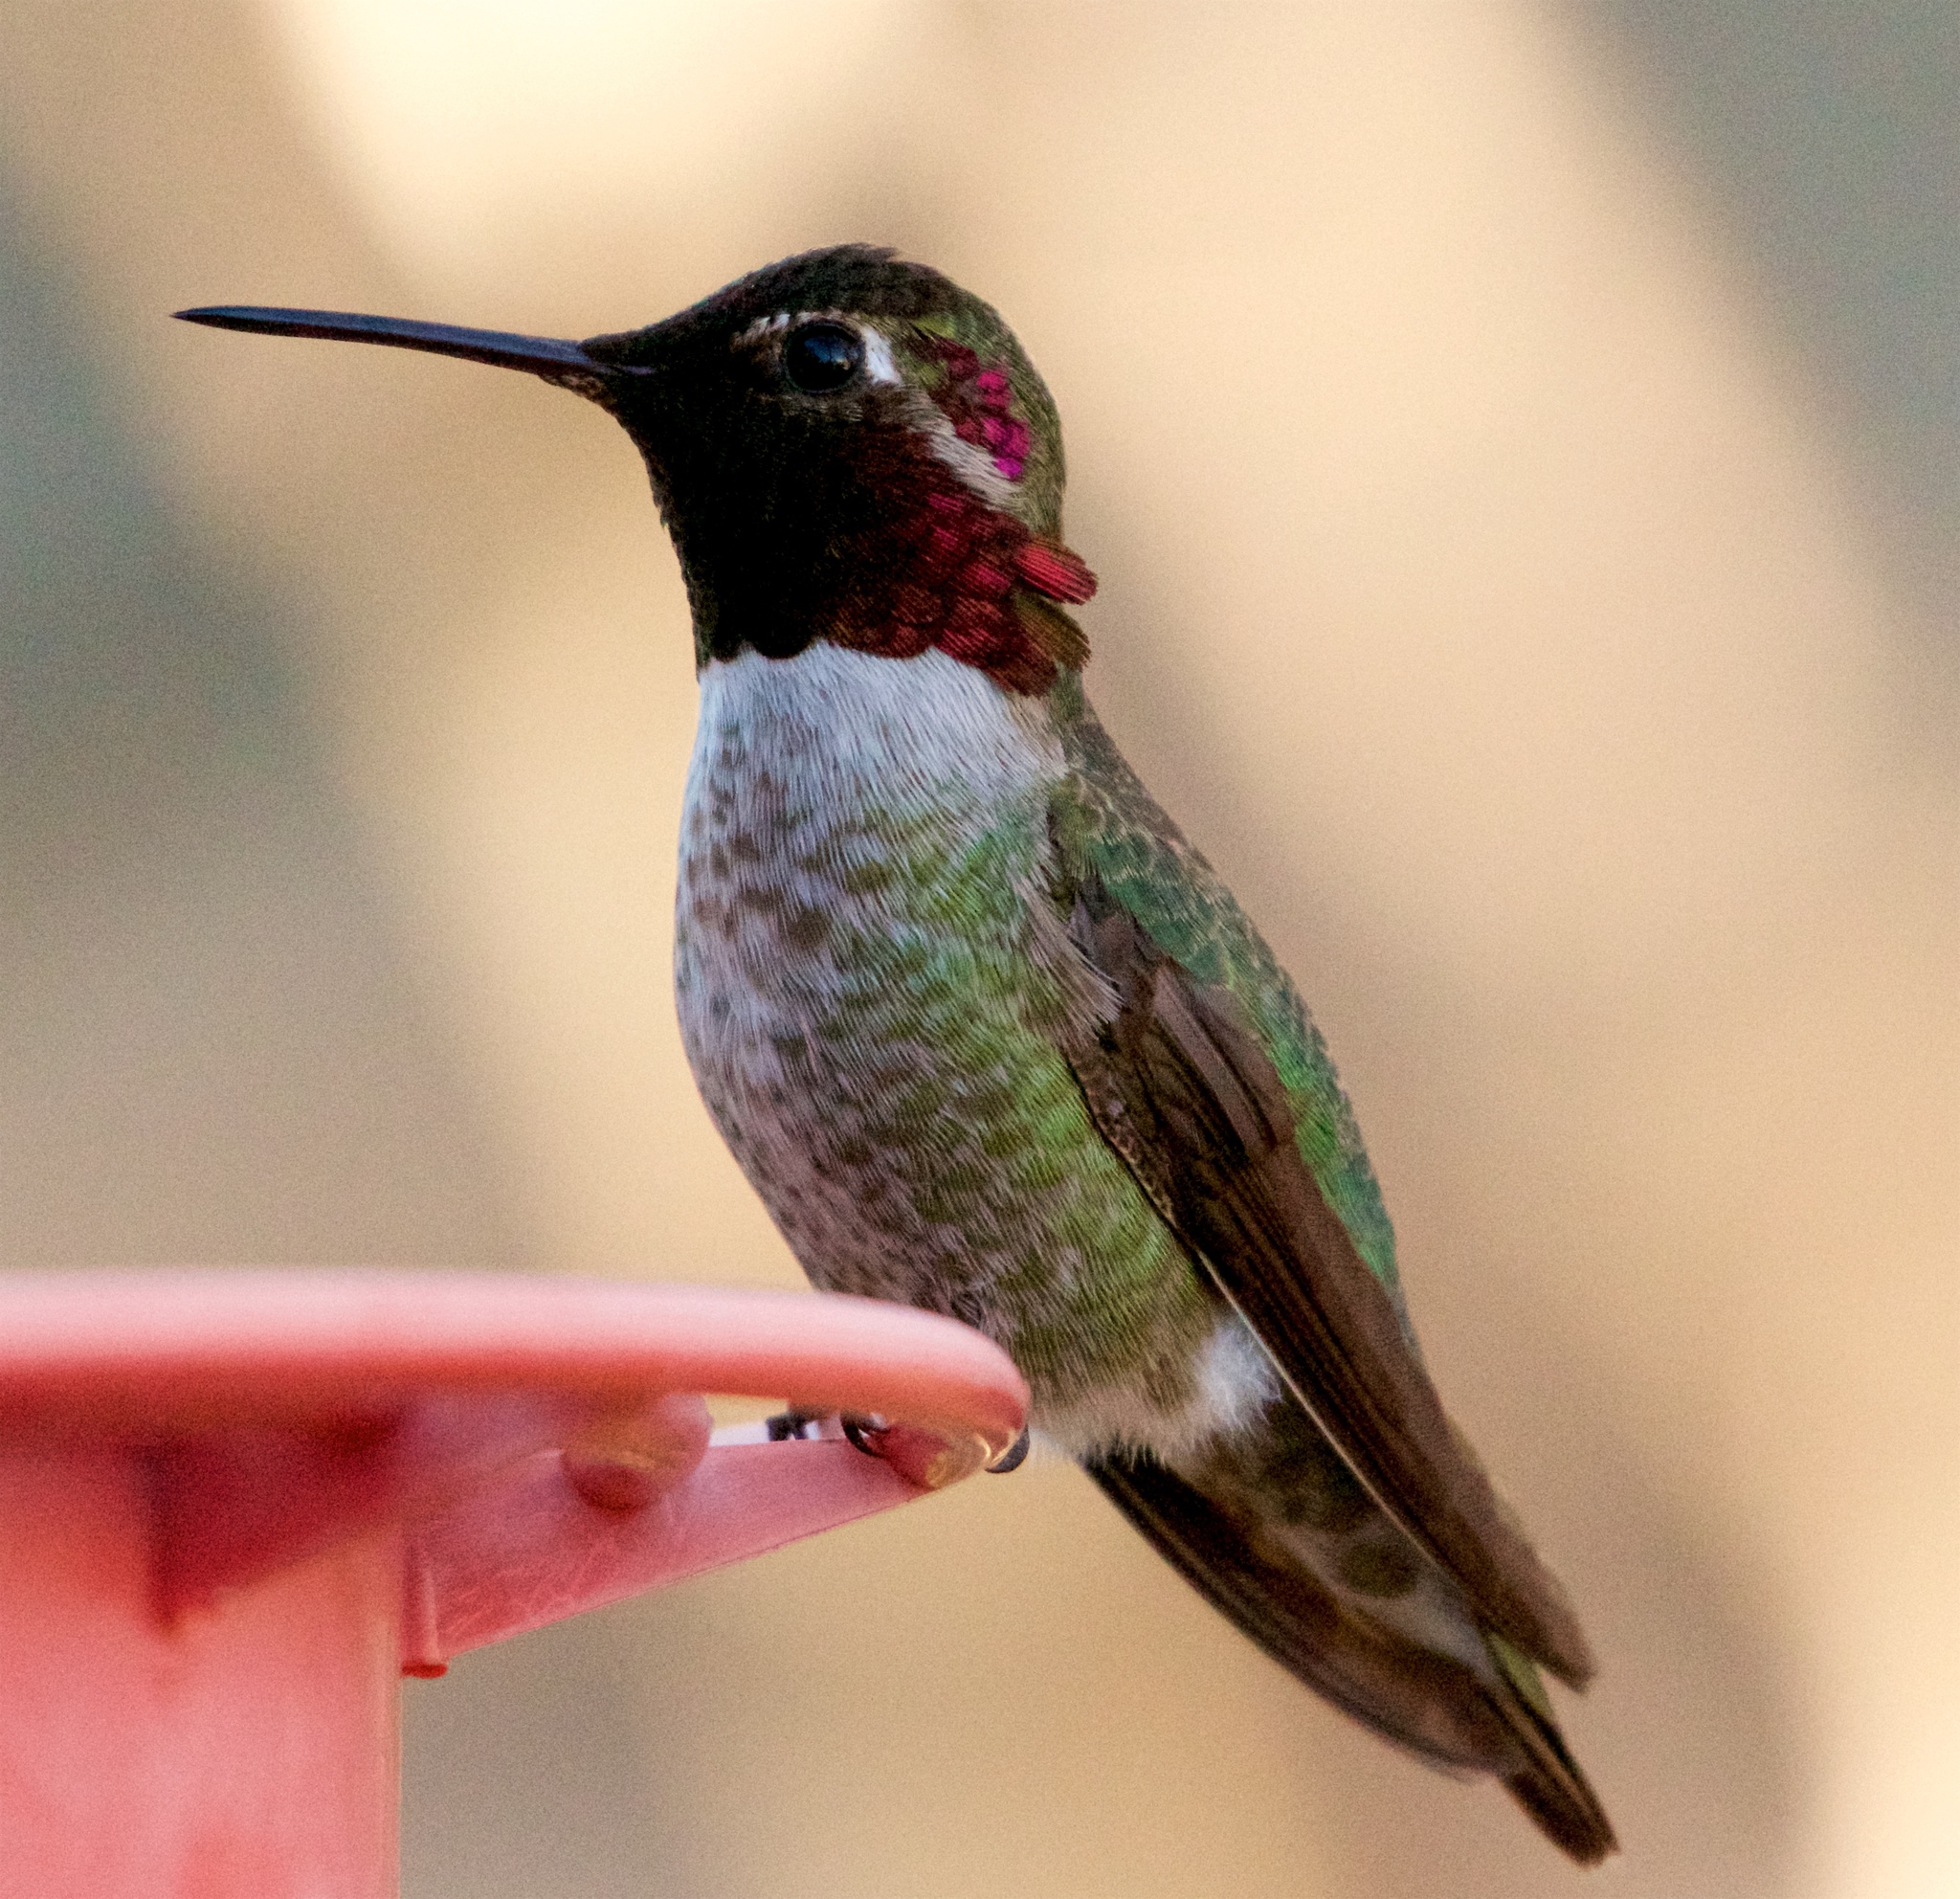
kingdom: Animalia
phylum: Chordata
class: Aves
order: Apodiformes
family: Trochilidae
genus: Calypte
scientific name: Calypte anna
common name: Anna's hummingbird
